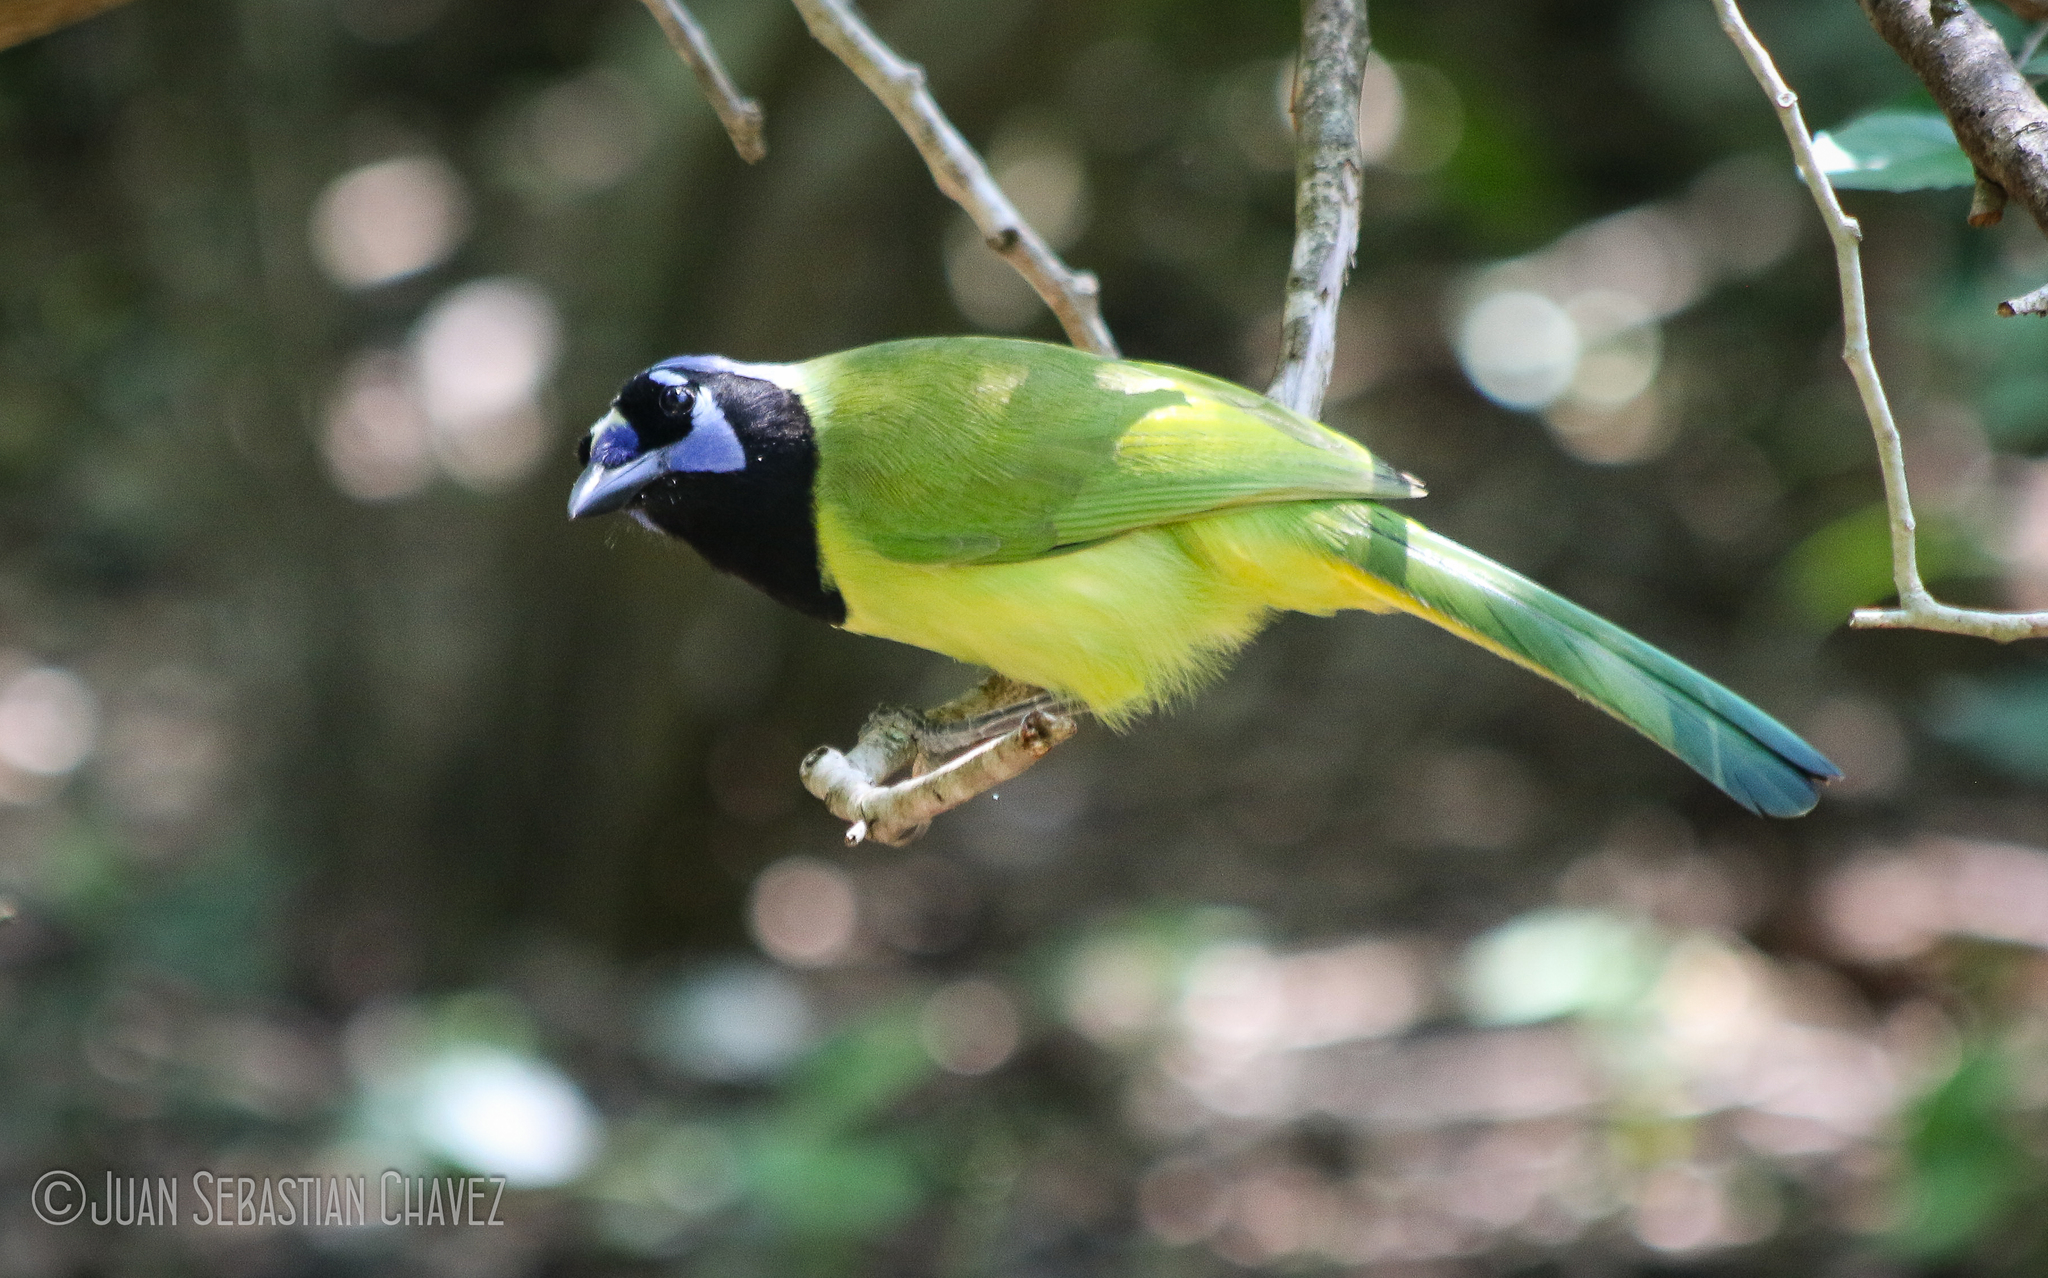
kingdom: Animalia
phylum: Chordata
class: Aves
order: Passeriformes
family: Corvidae
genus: Cyanocorax
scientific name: Cyanocorax yncas
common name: Green jay
